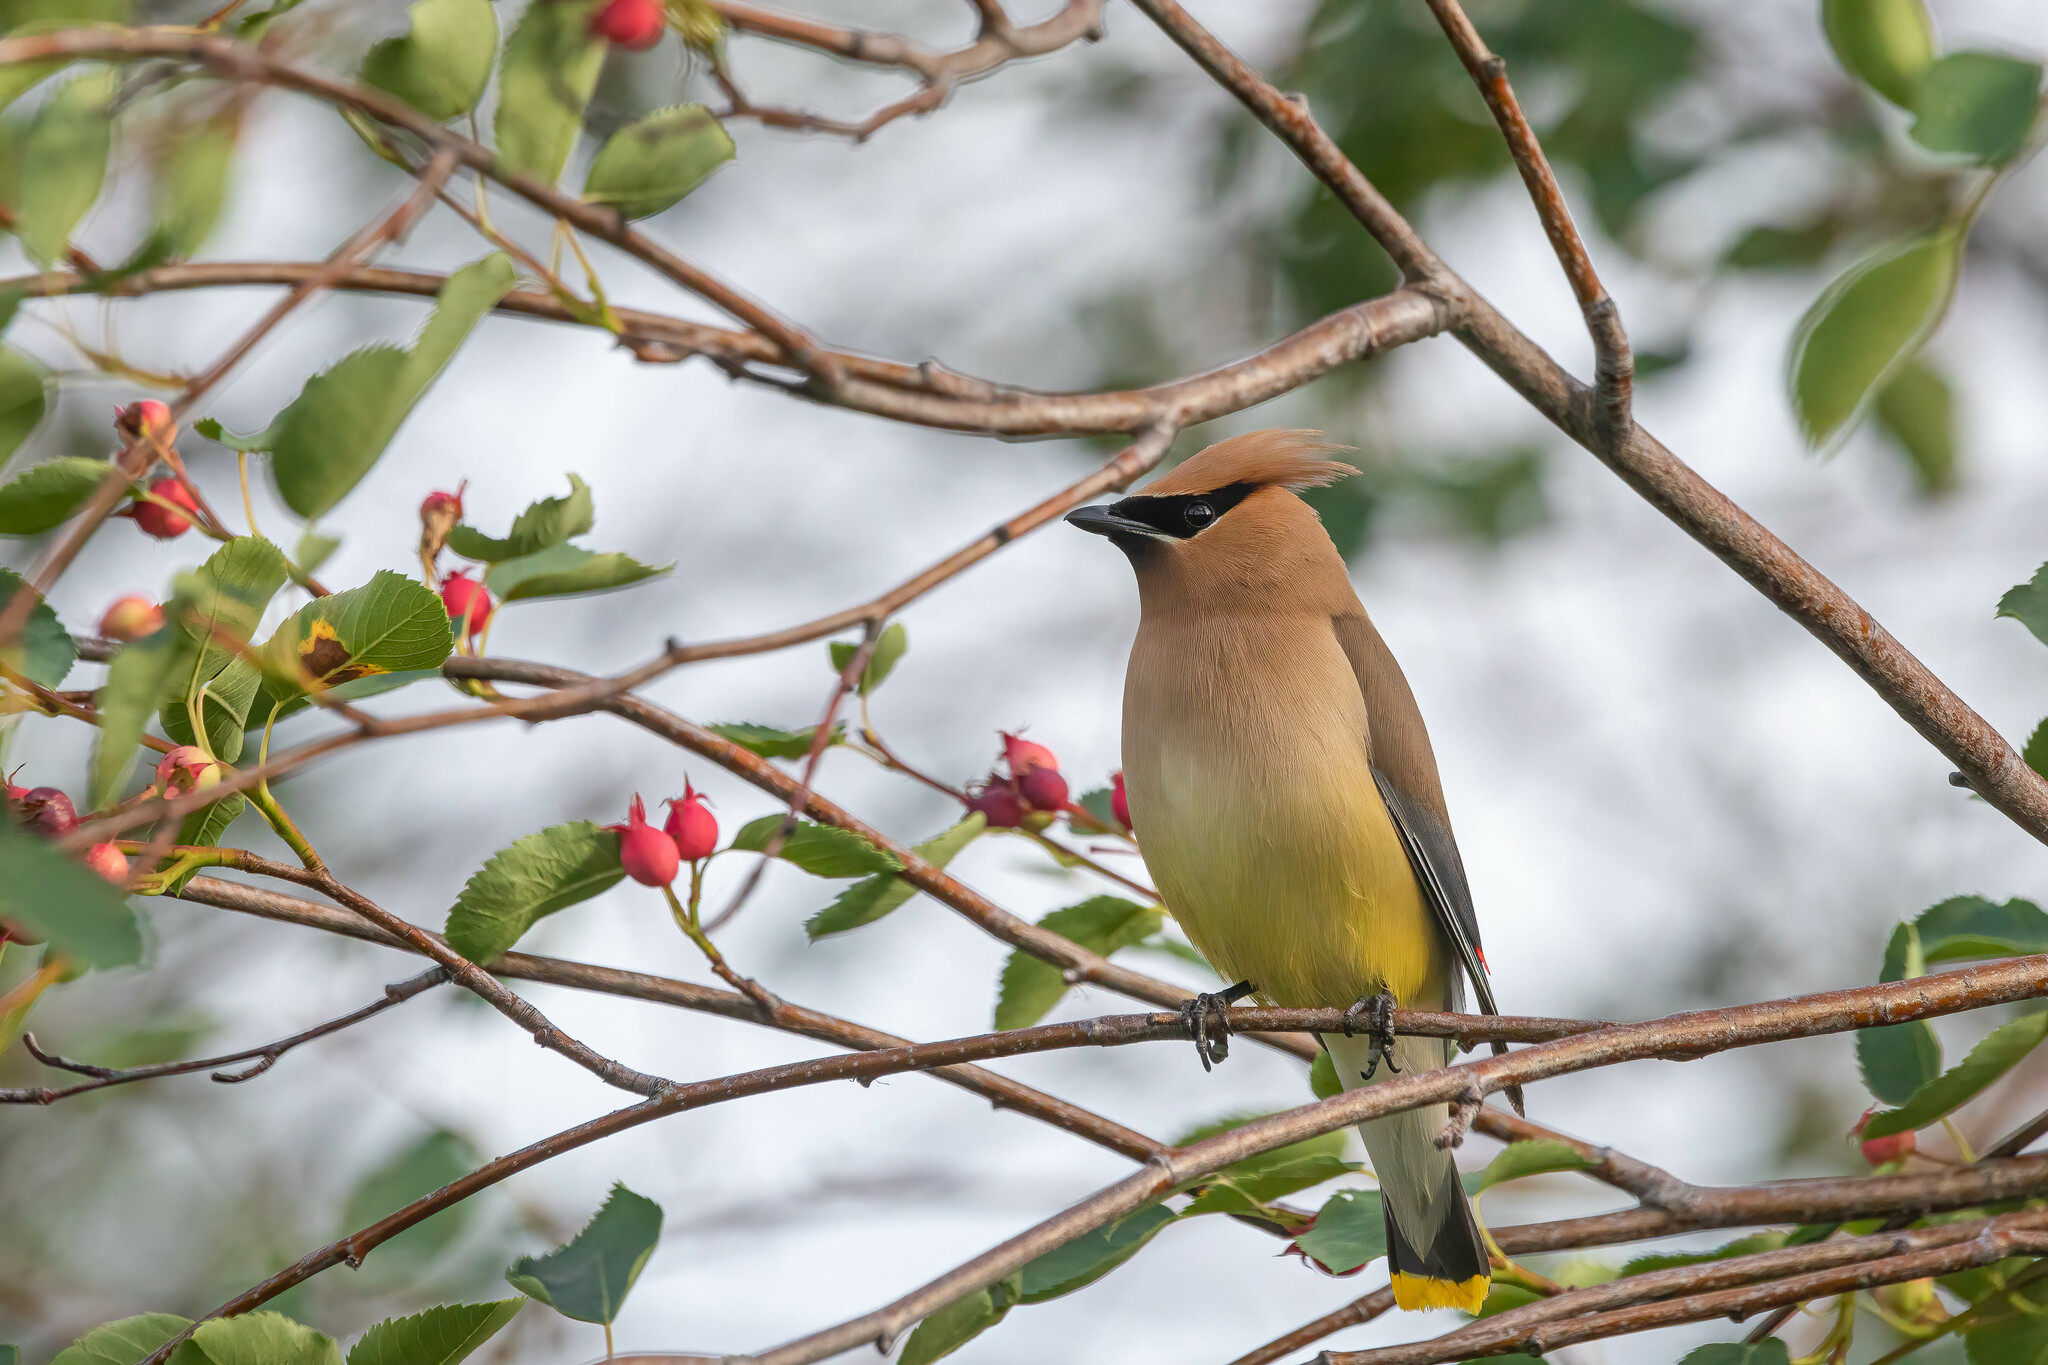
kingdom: Animalia
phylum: Chordata
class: Aves
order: Passeriformes
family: Bombycillidae
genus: Bombycilla
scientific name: Bombycilla cedrorum
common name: Cedar waxwing
